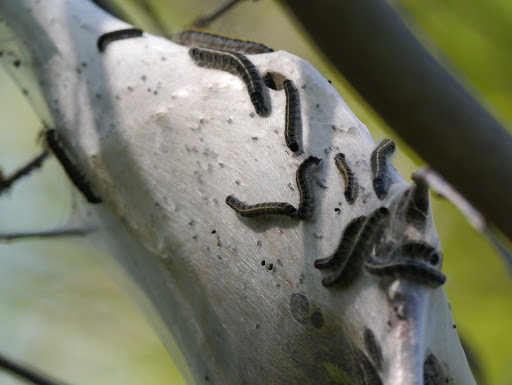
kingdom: Animalia
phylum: Arthropoda
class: Insecta
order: Lepidoptera
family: Lasiocampidae
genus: Malacosoma
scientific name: Malacosoma americana
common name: Eastern tent caterpillar moth
